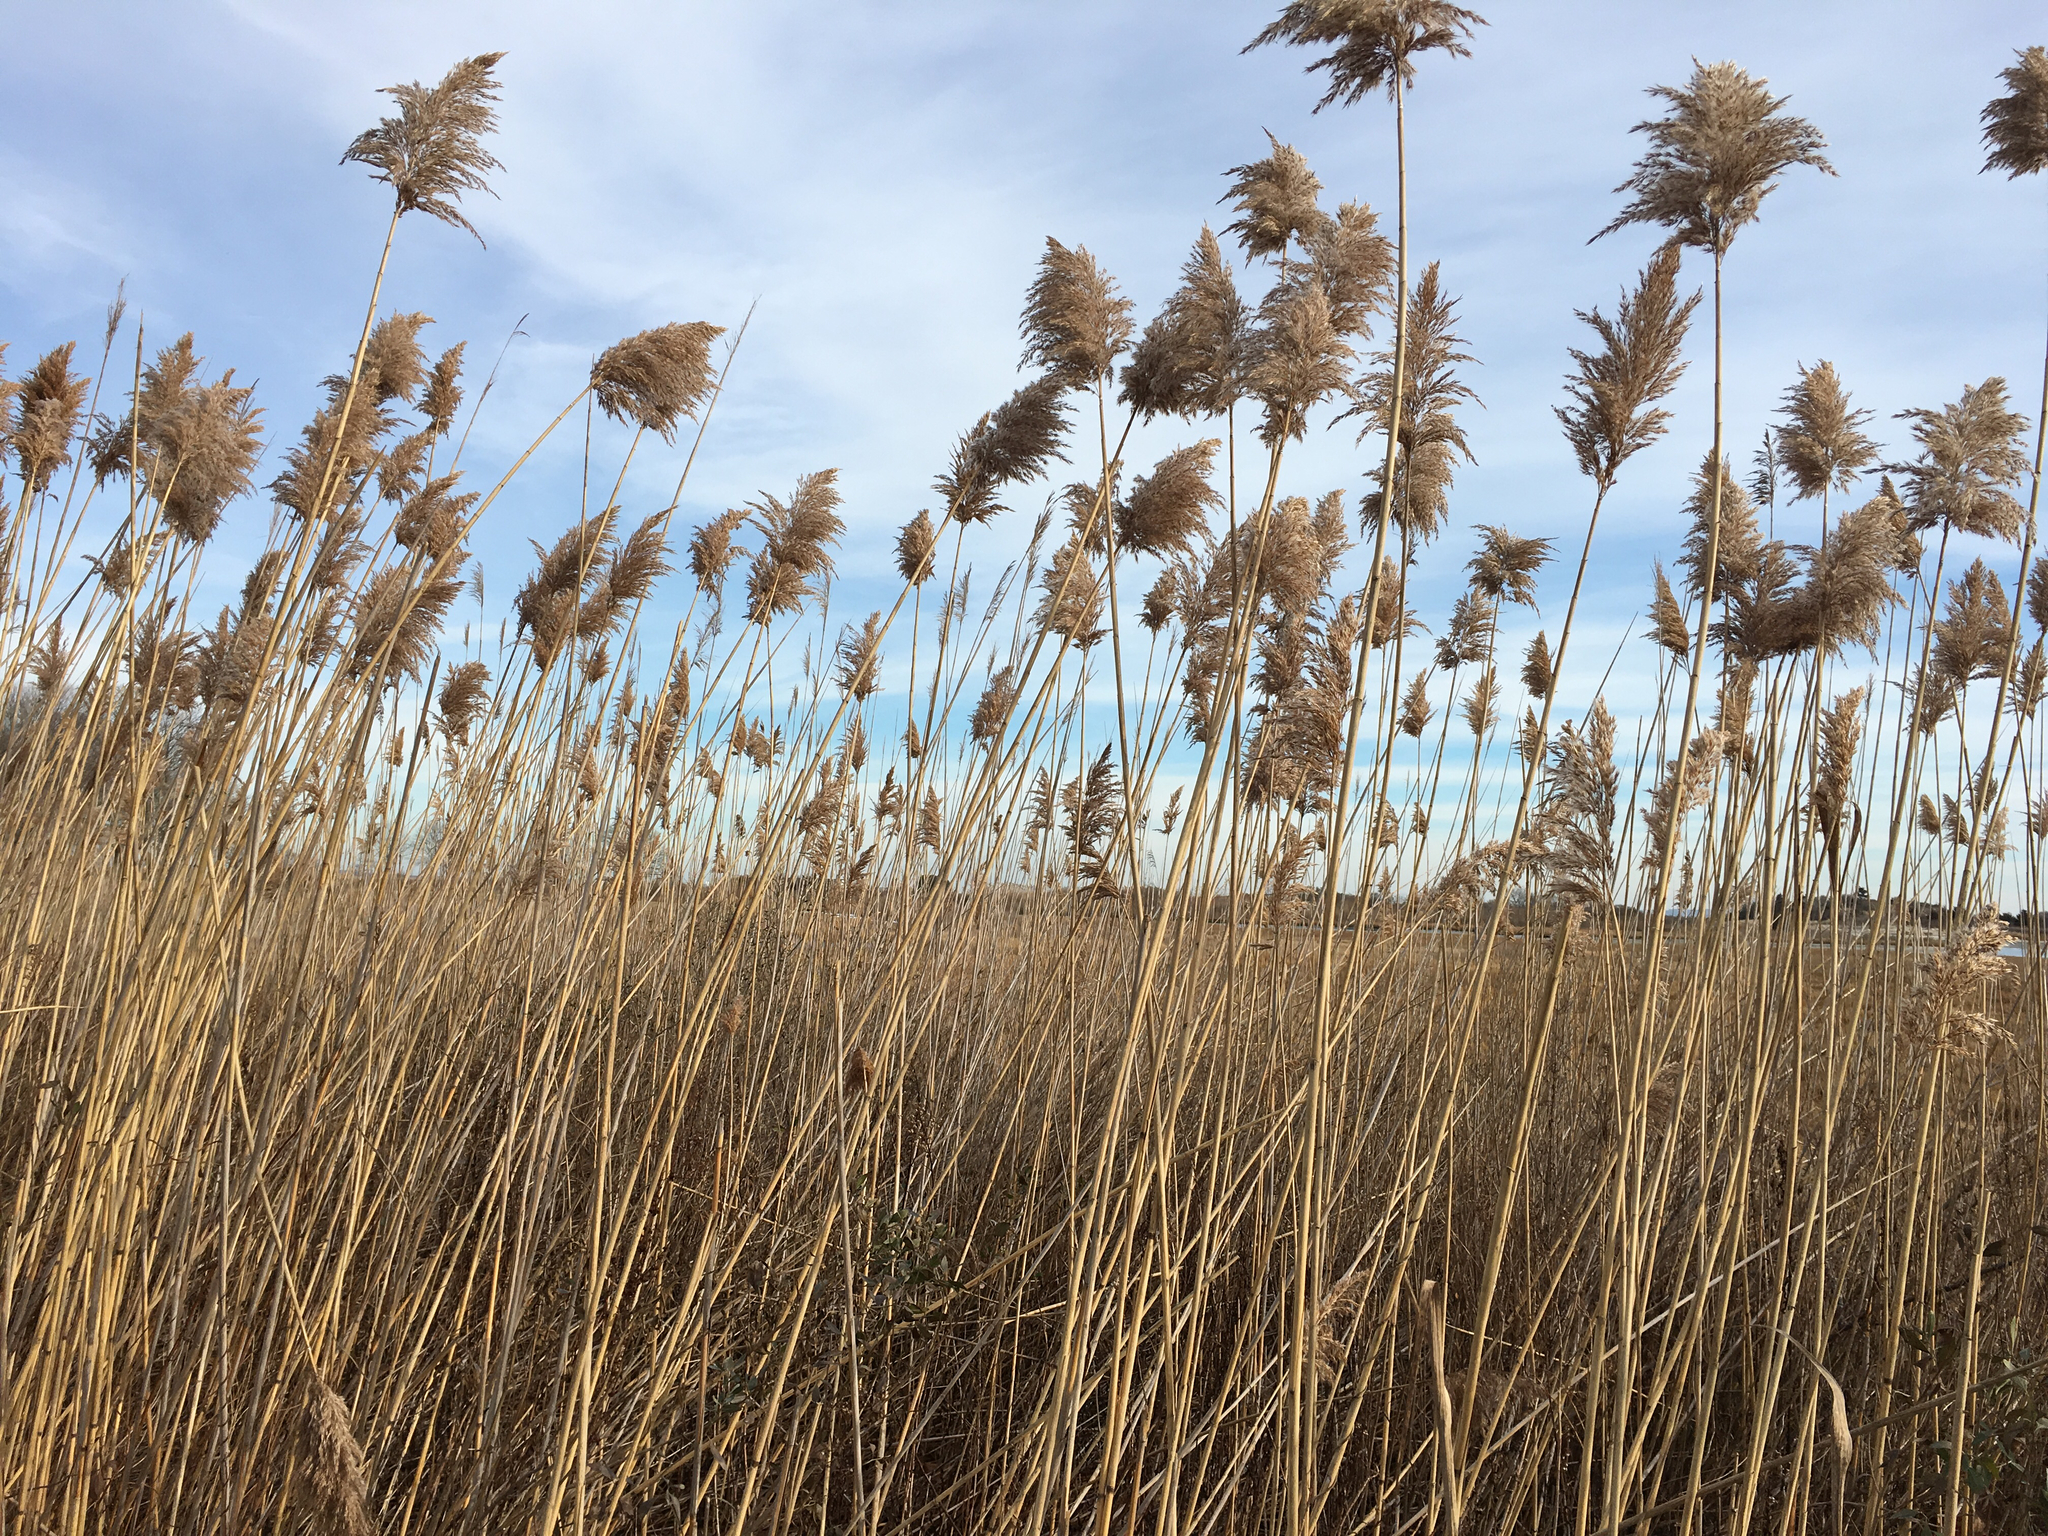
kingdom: Plantae
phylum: Tracheophyta
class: Liliopsida
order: Poales
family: Poaceae
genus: Phragmites
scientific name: Phragmites australis
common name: Common reed
